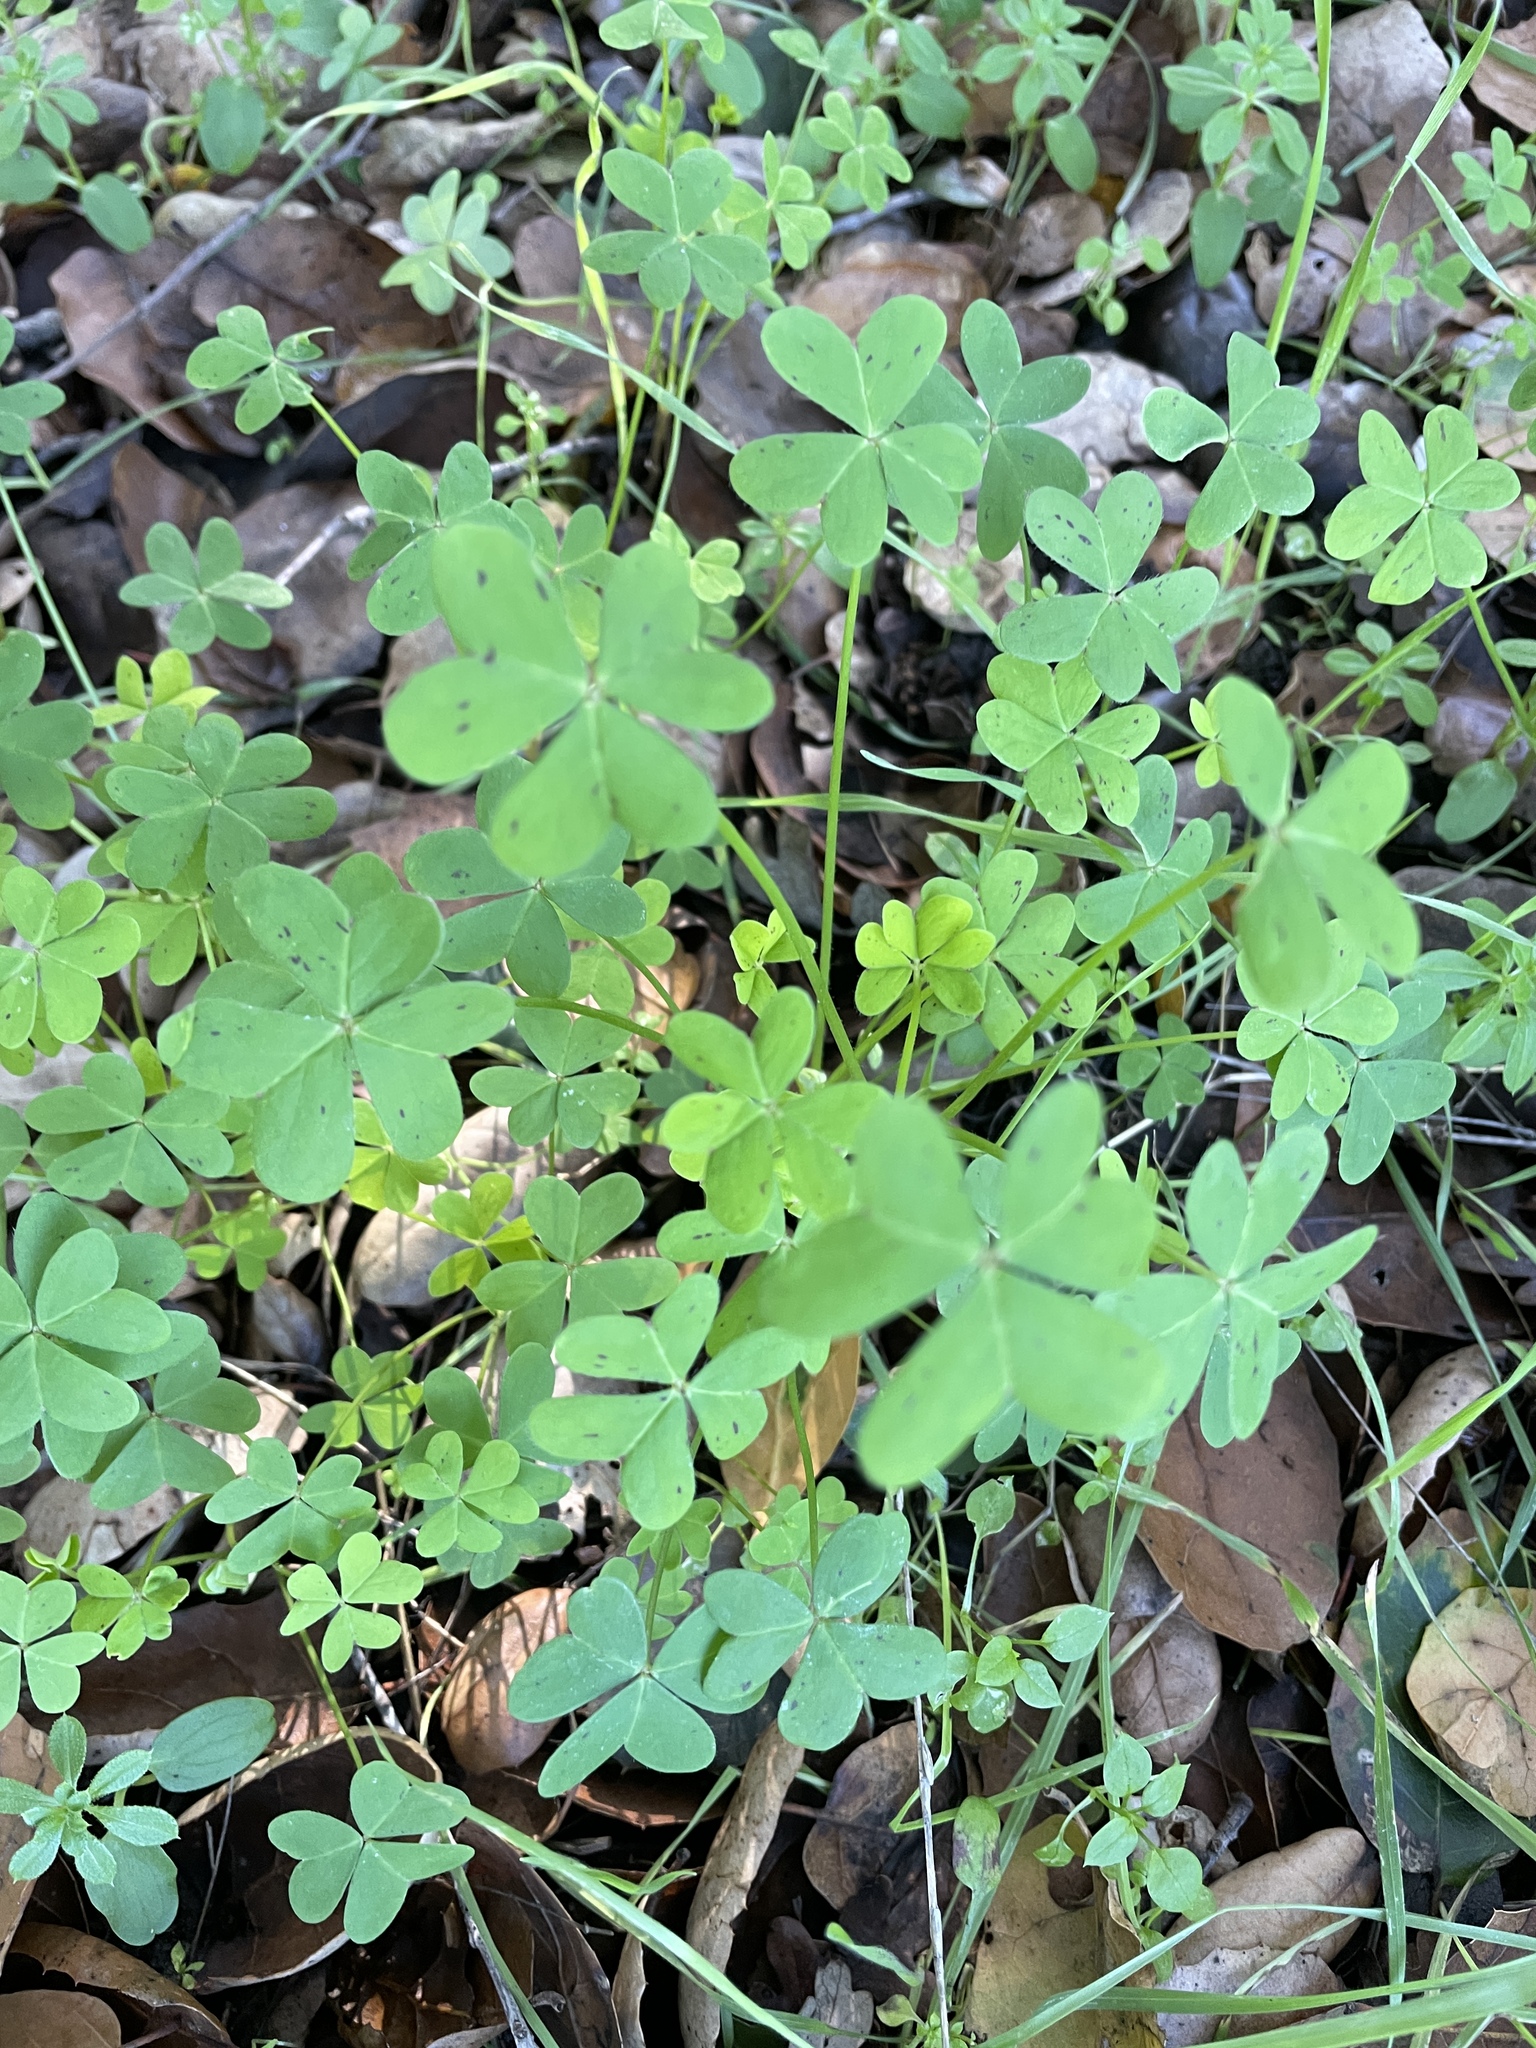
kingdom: Plantae
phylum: Tracheophyta
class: Magnoliopsida
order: Oxalidales
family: Oxalidaceae
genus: Oxalis
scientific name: Oxalis pes-caprae
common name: Bermuda-buttercup
